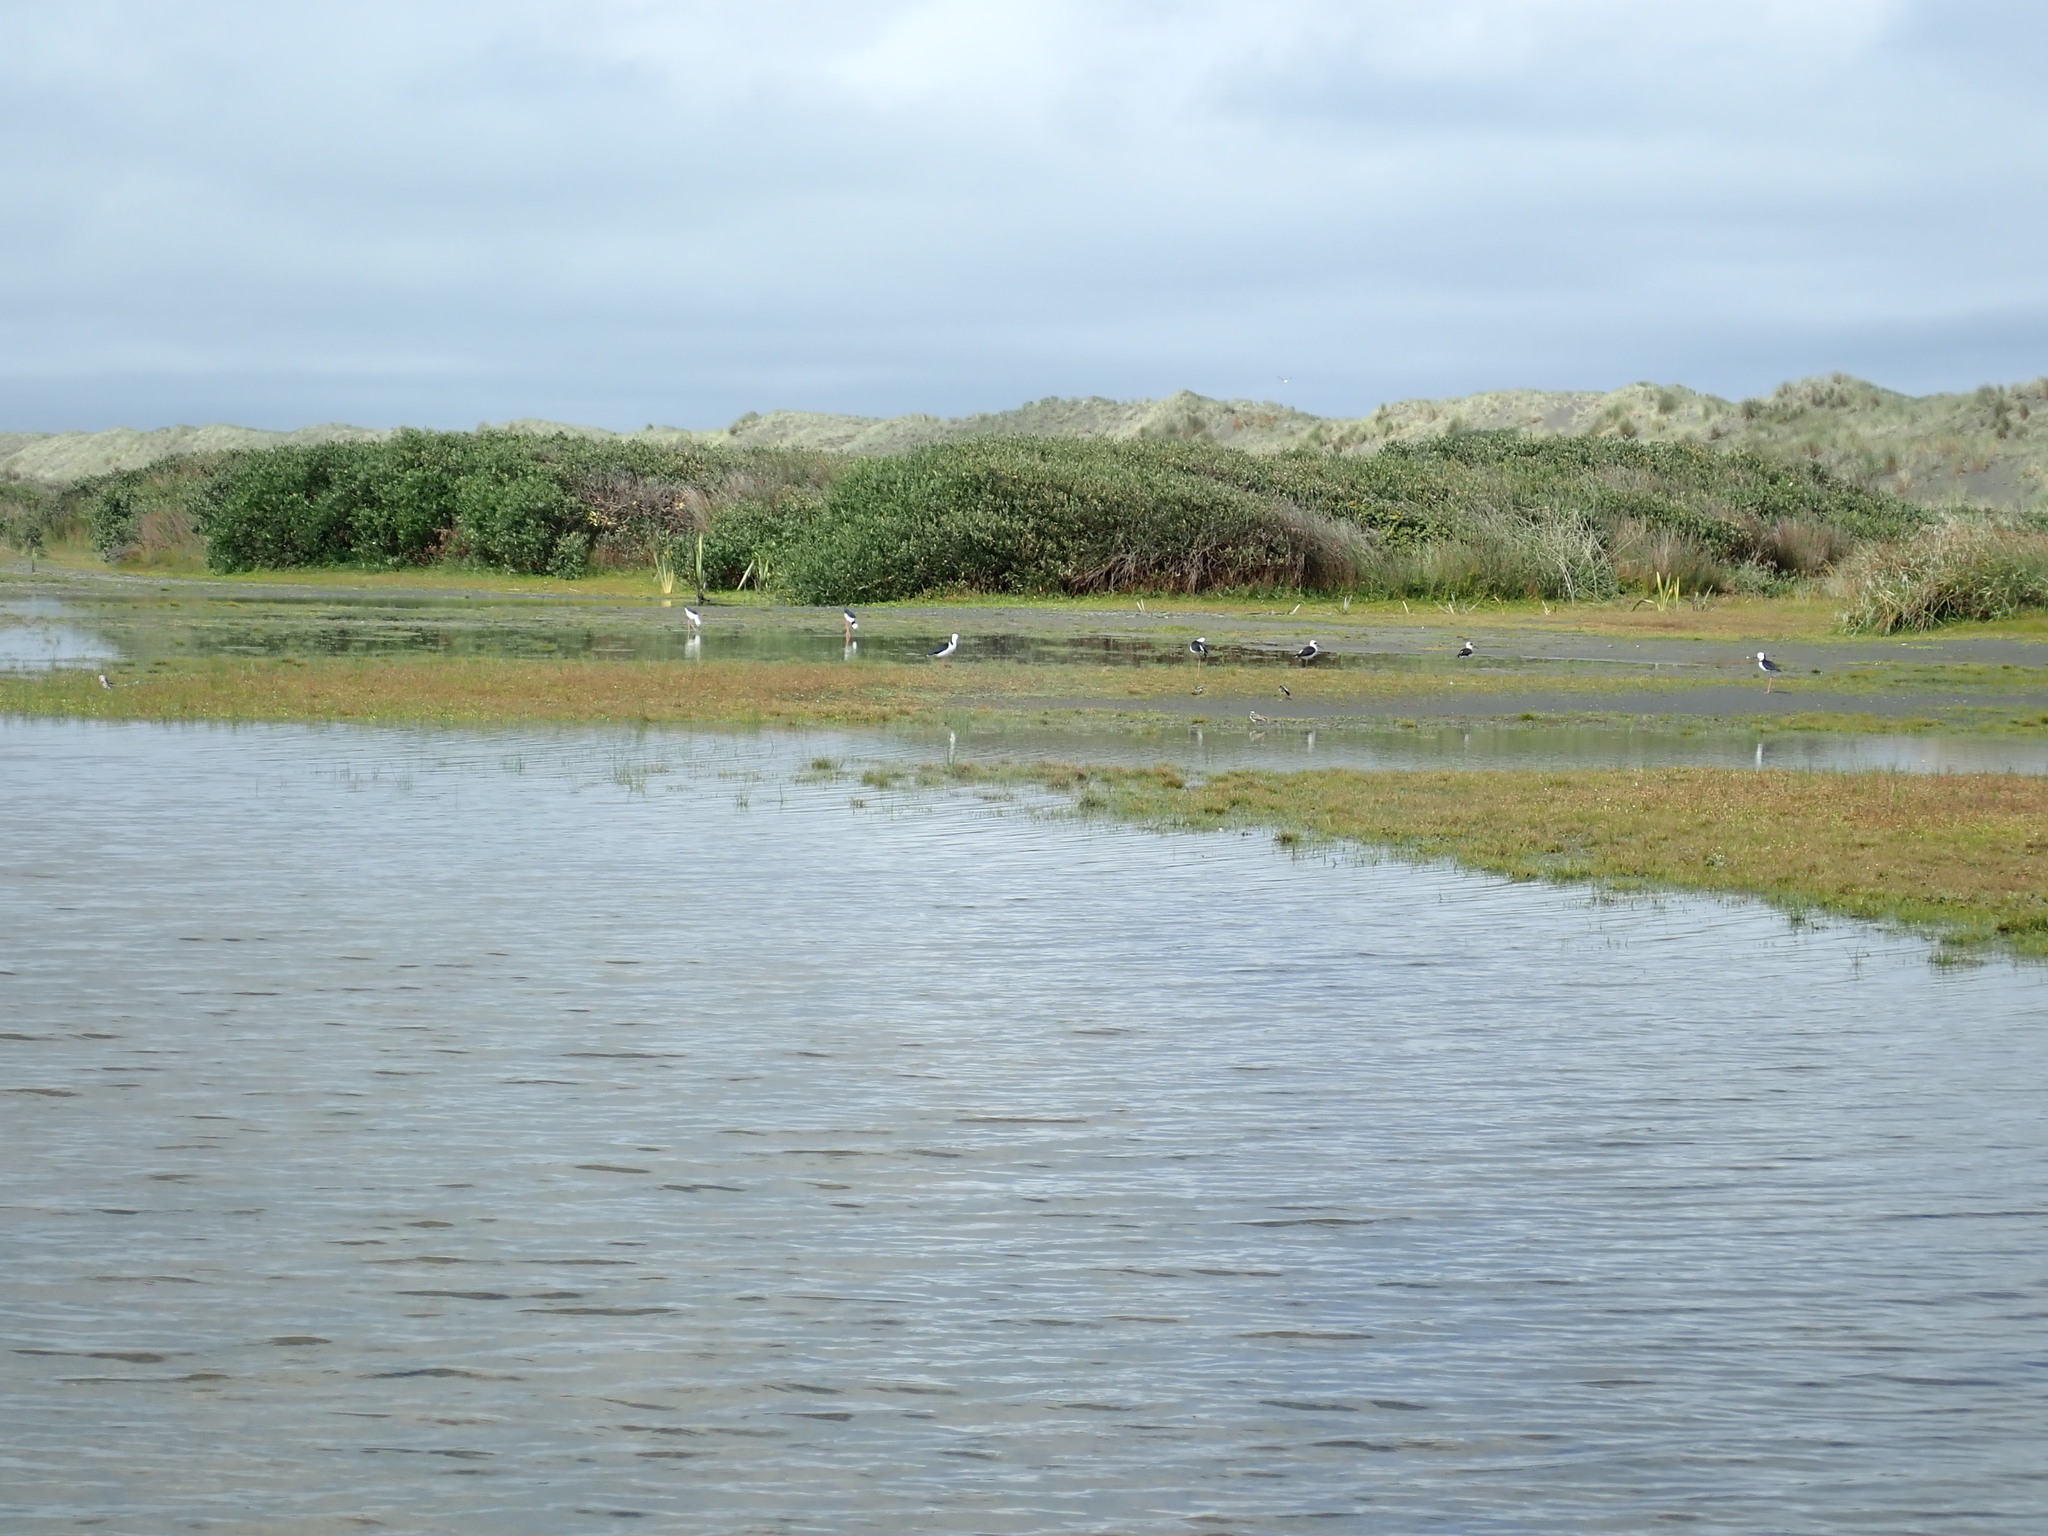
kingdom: Animalia
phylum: Chordata
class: Aves
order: Charadriiformes
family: Recurvirostridae
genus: Himantopus
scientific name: Himantopus leucocephalus
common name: White-headed stilt
